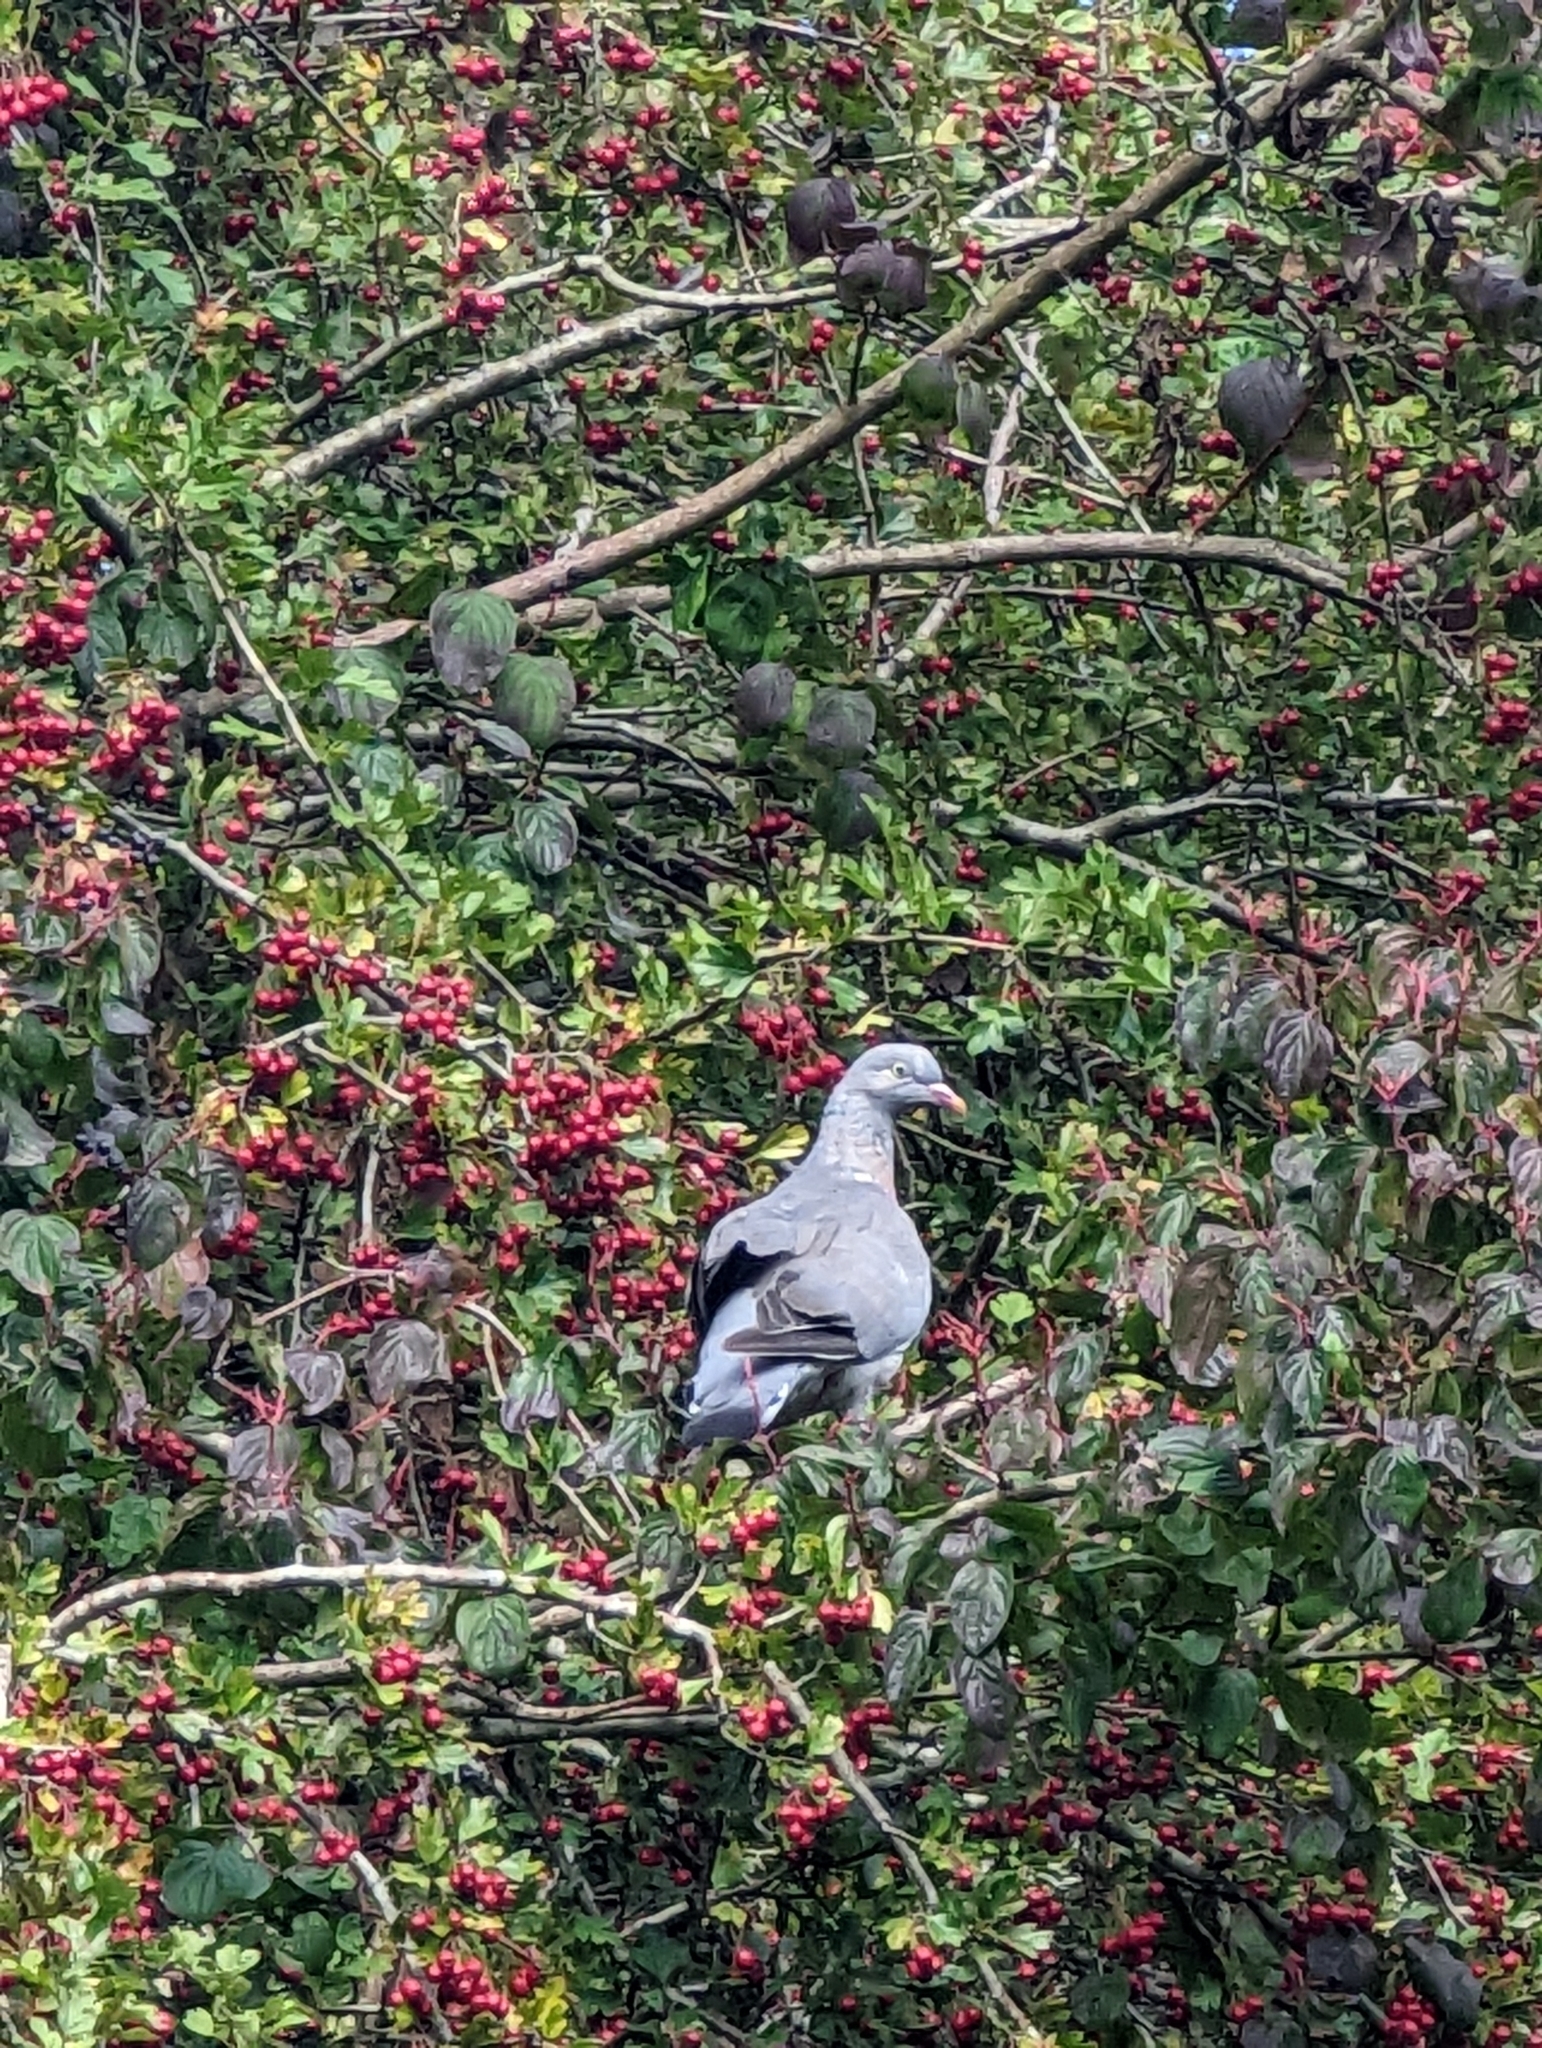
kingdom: Animalia
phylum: Chordata
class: Aves
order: Columbiformes
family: Columbidae
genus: Columba
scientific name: Columba palumbus
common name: Common wood pigeon
